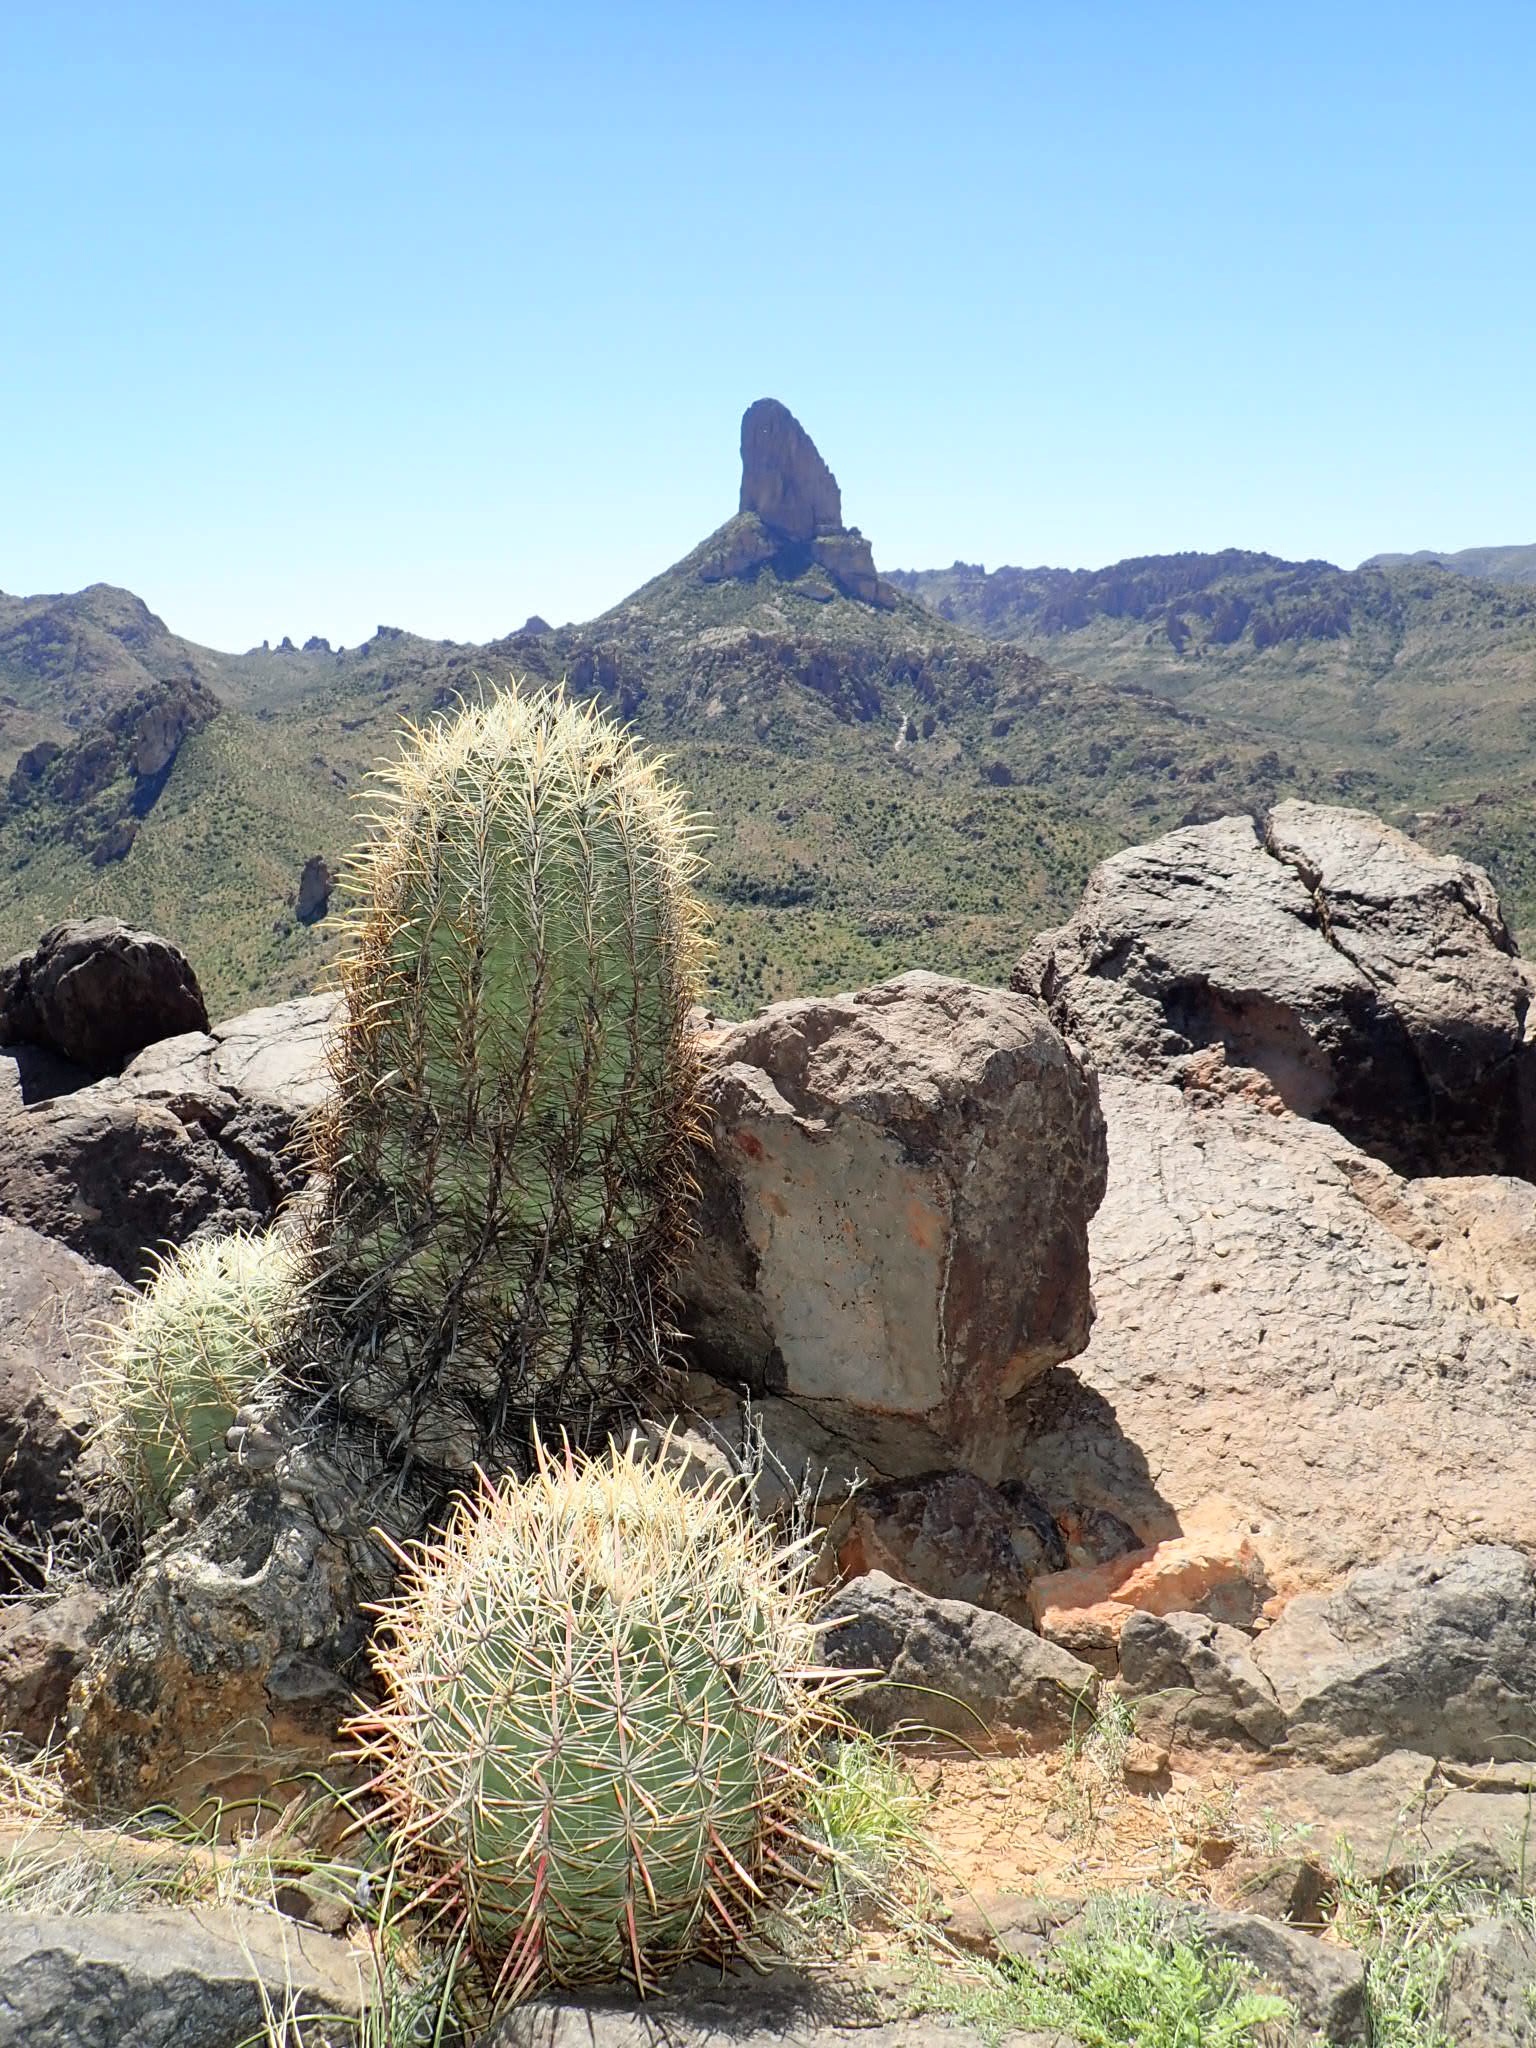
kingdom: Plantae
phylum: Tracheophyta
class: Magnoliopsida
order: Caryophyllales
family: Cactaceae
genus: Ferocactus
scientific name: Ferocactus cylindraceus
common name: California barrel cactus
